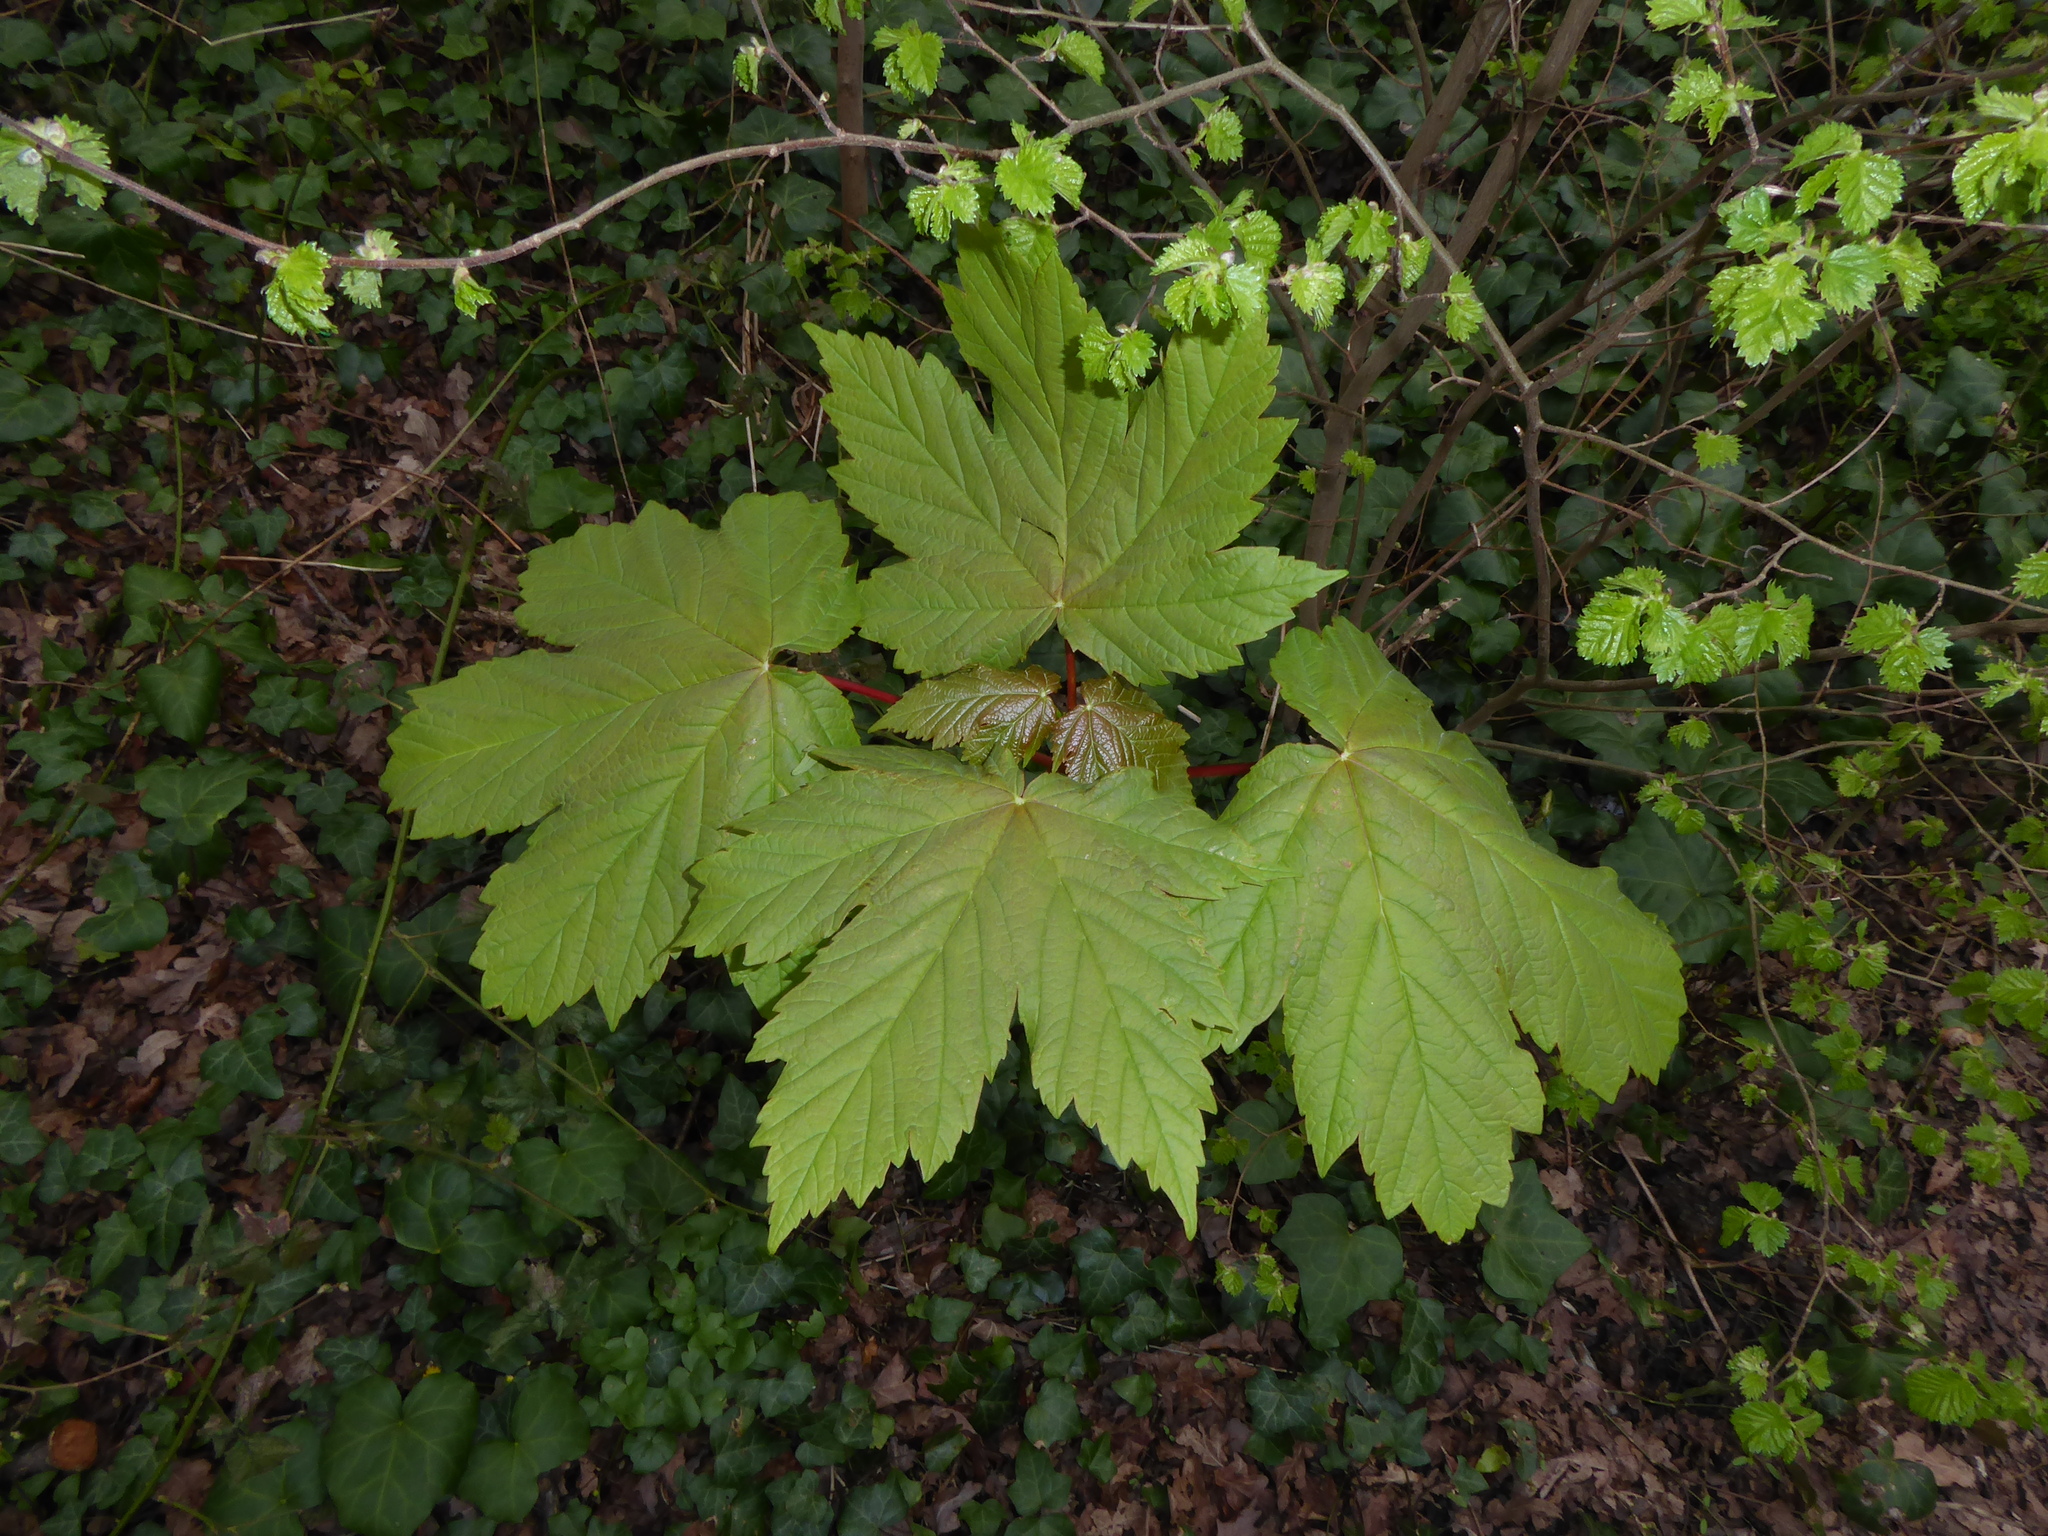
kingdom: Plantae
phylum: Tracheophyta
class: Magnoliopsida
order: Sapindales
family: Sapindaceae
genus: Acer
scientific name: Acer pseudoplatanus
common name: Sycamore
